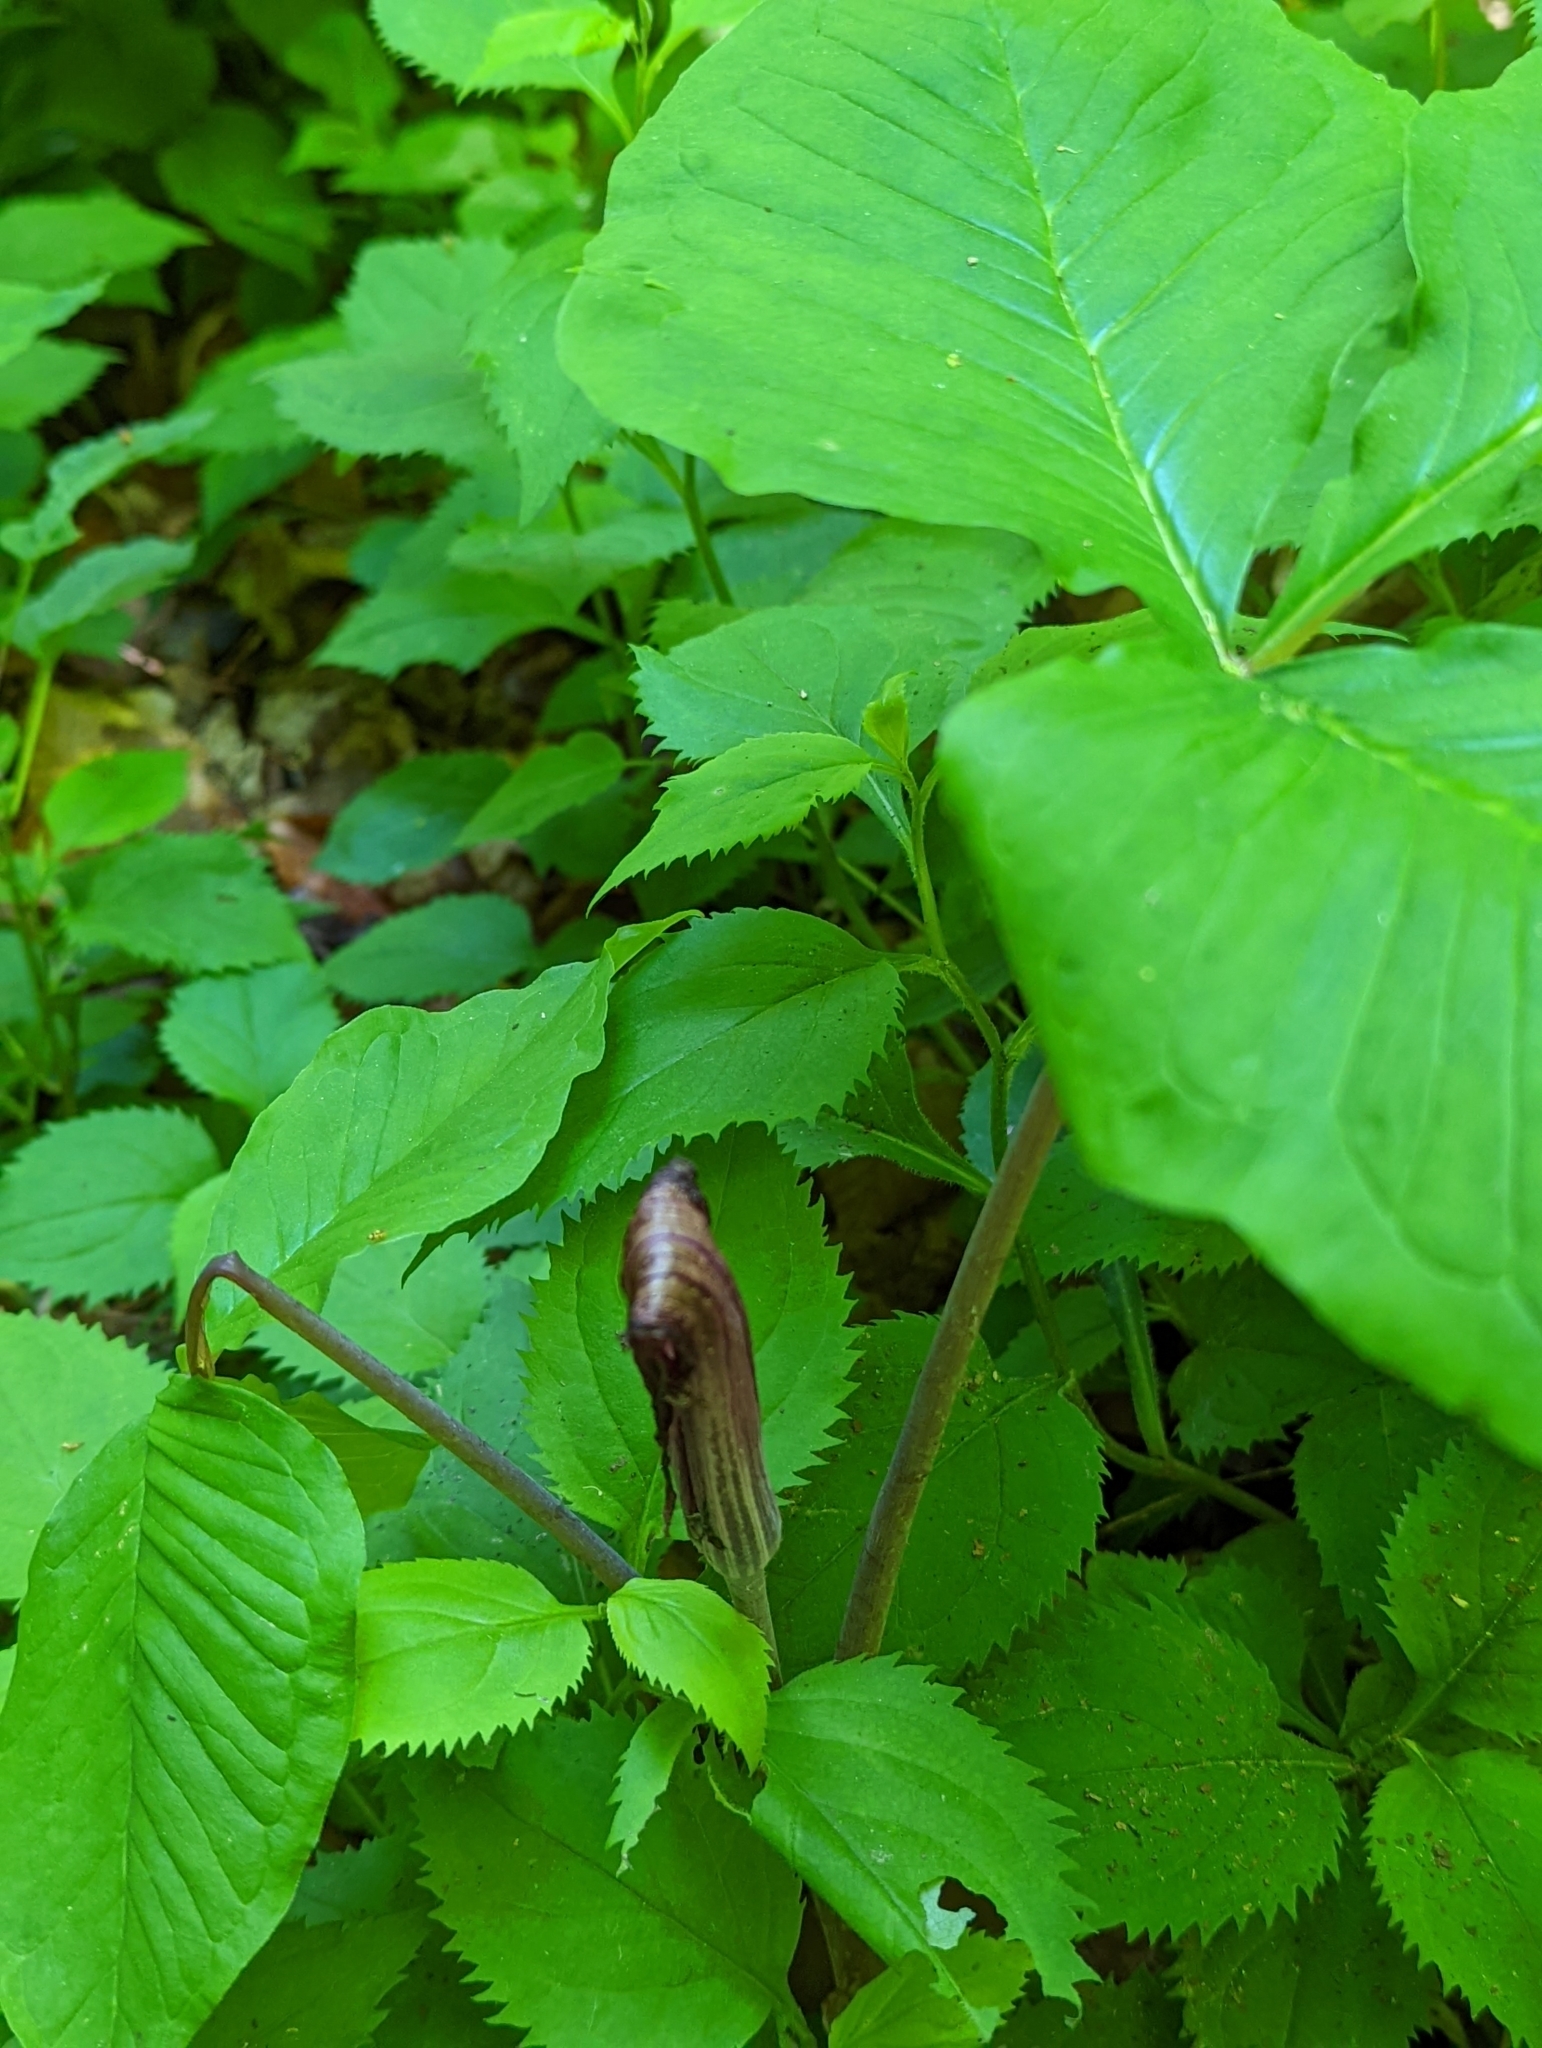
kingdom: Plantae
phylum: Tracheophyta
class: Liliopsida
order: Alismatales
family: Araceae
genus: Arisaema
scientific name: Arisaema triphyllum
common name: Jack-in-the-pulpit
